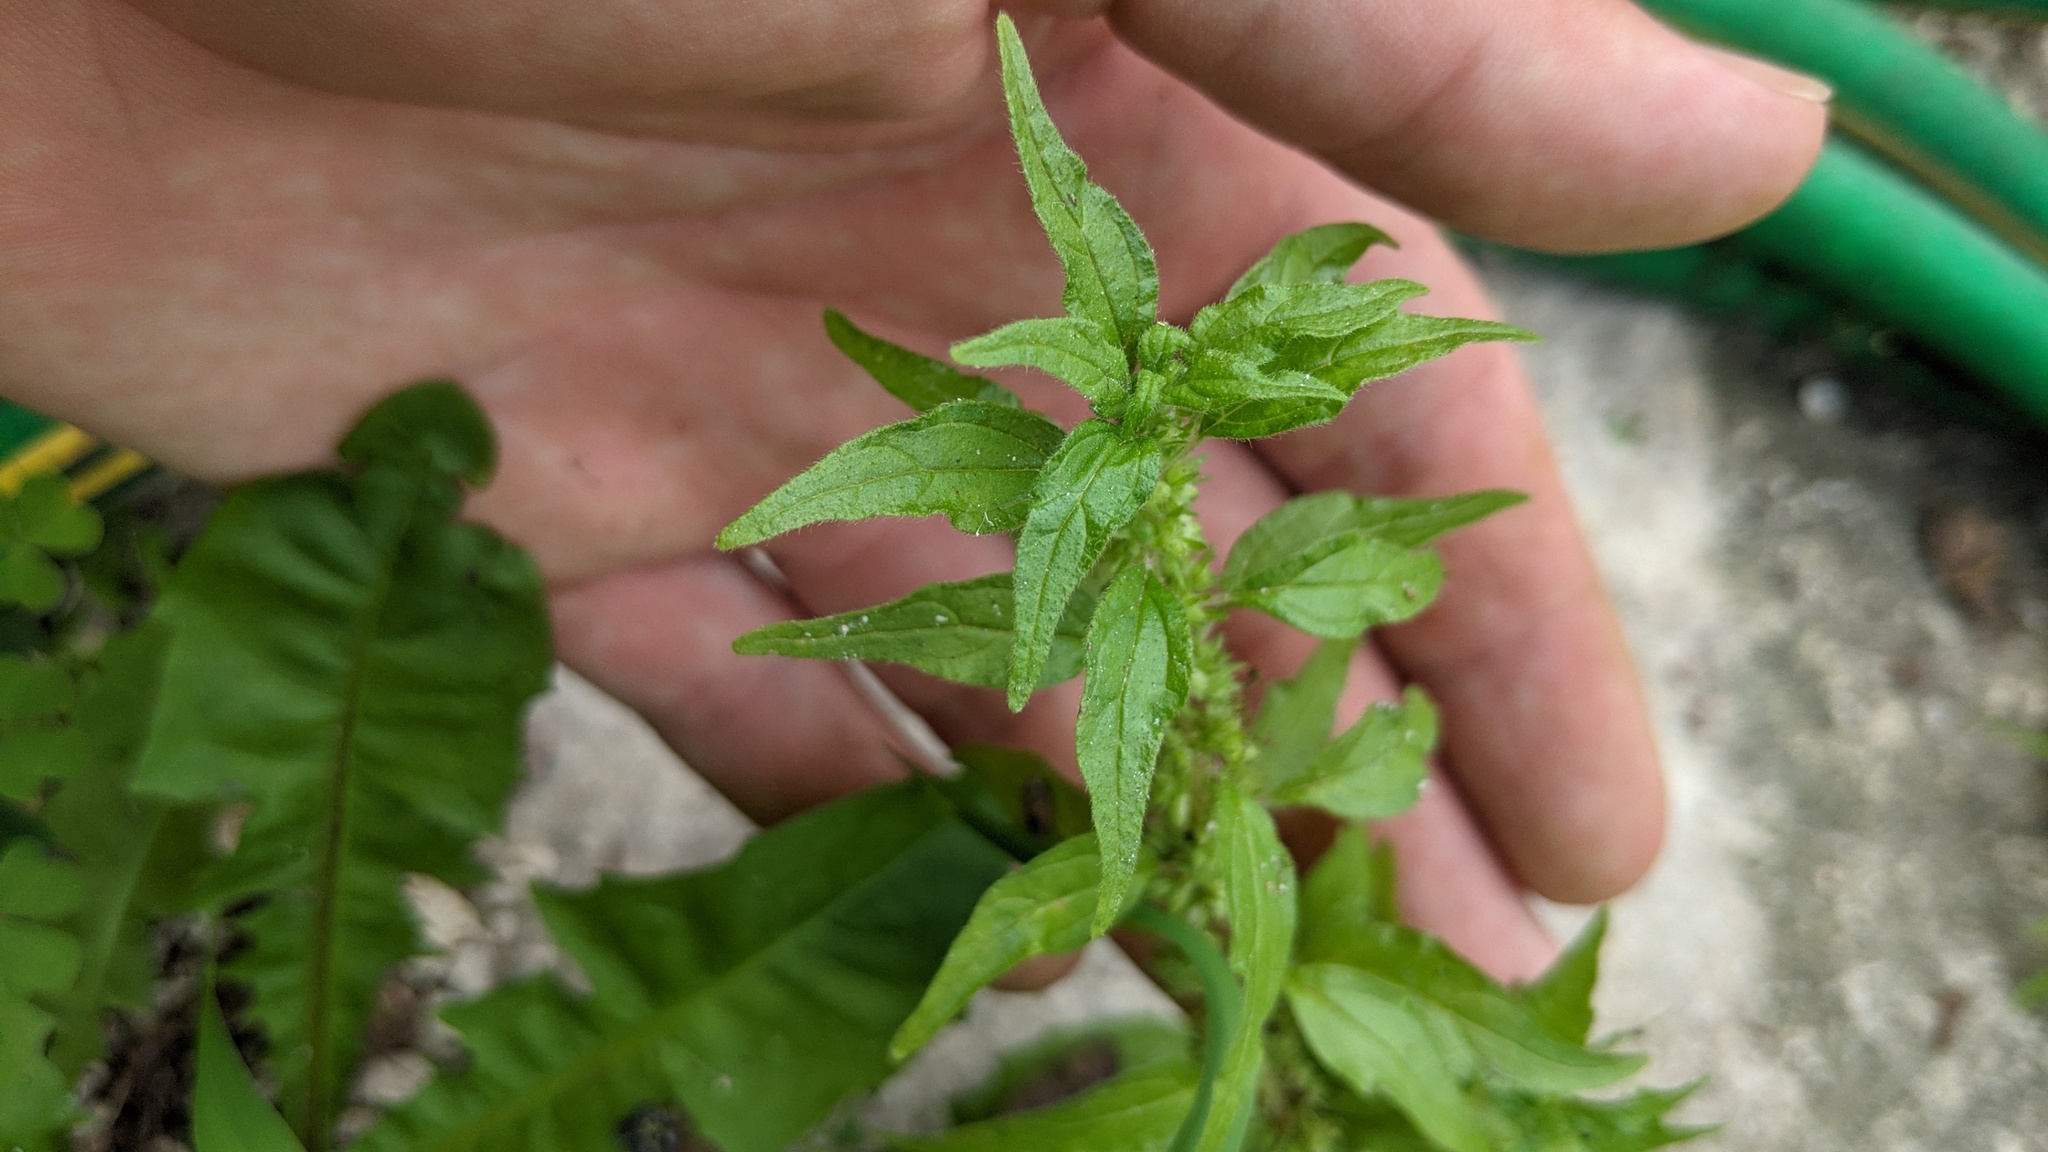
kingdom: Plantae
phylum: Tracheophyta
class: Magnoliopsida
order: Rosales
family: Urticaceae
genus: Parietaria
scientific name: Parietaria pensylvanica
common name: Pennsylvania pellitory
